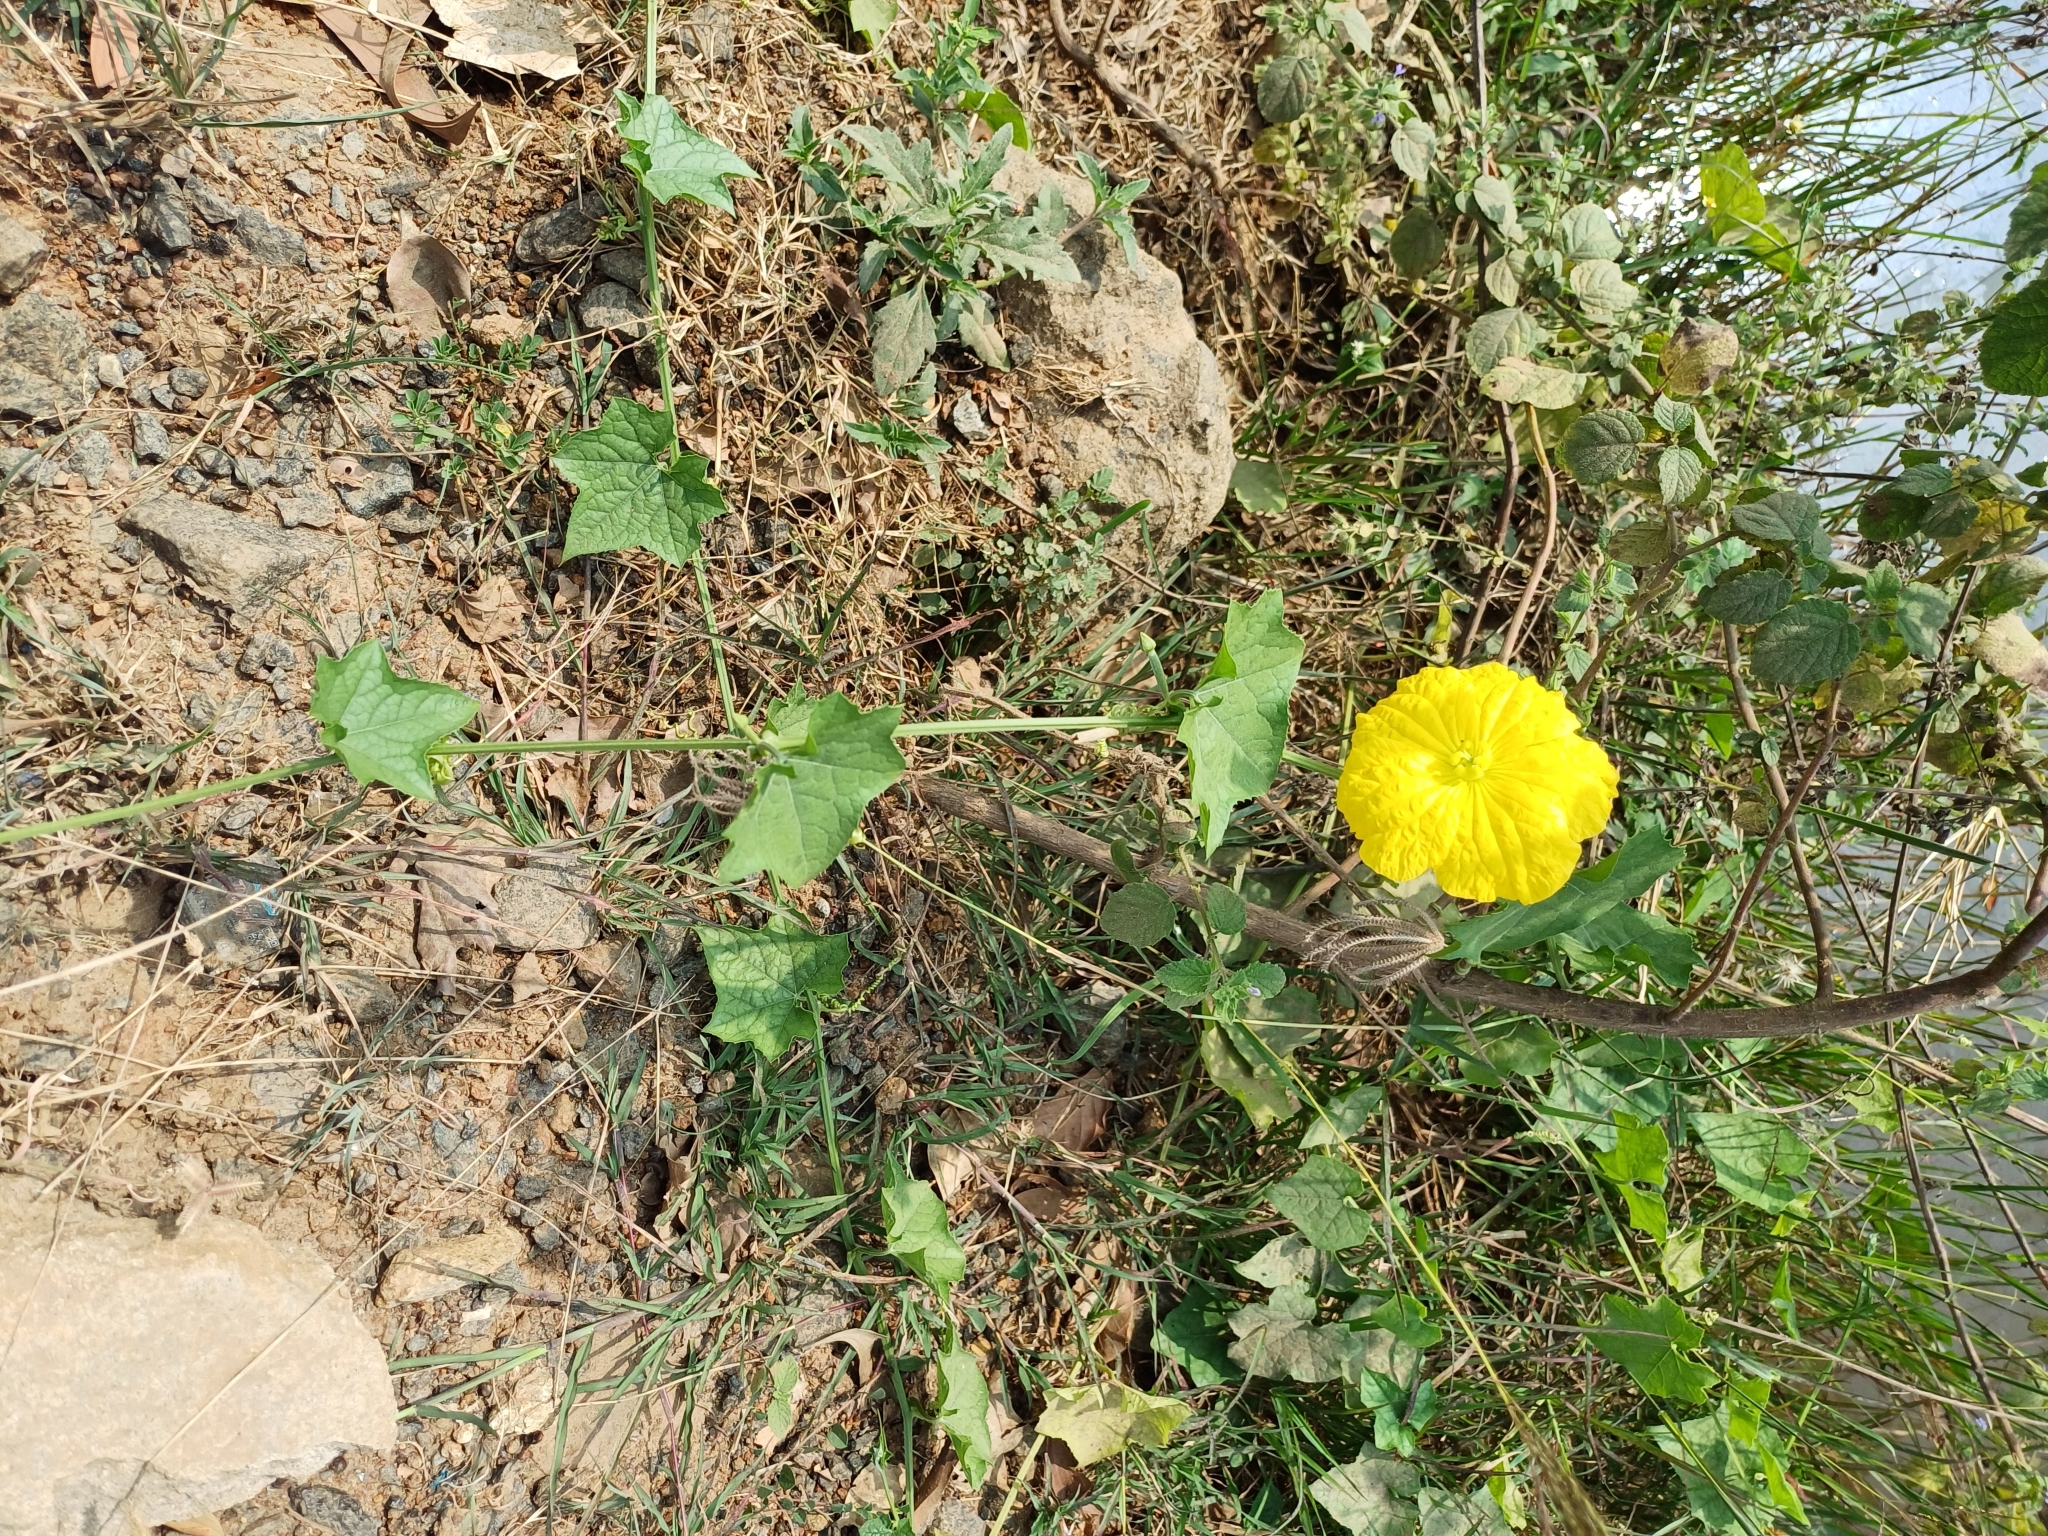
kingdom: Plantae
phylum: Tracheophyta
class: Magnoliopsida
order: Cucurbitales
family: Cucurbitaceae
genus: Luffa
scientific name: Luffa aegyptiaca
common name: Sponge gourd
